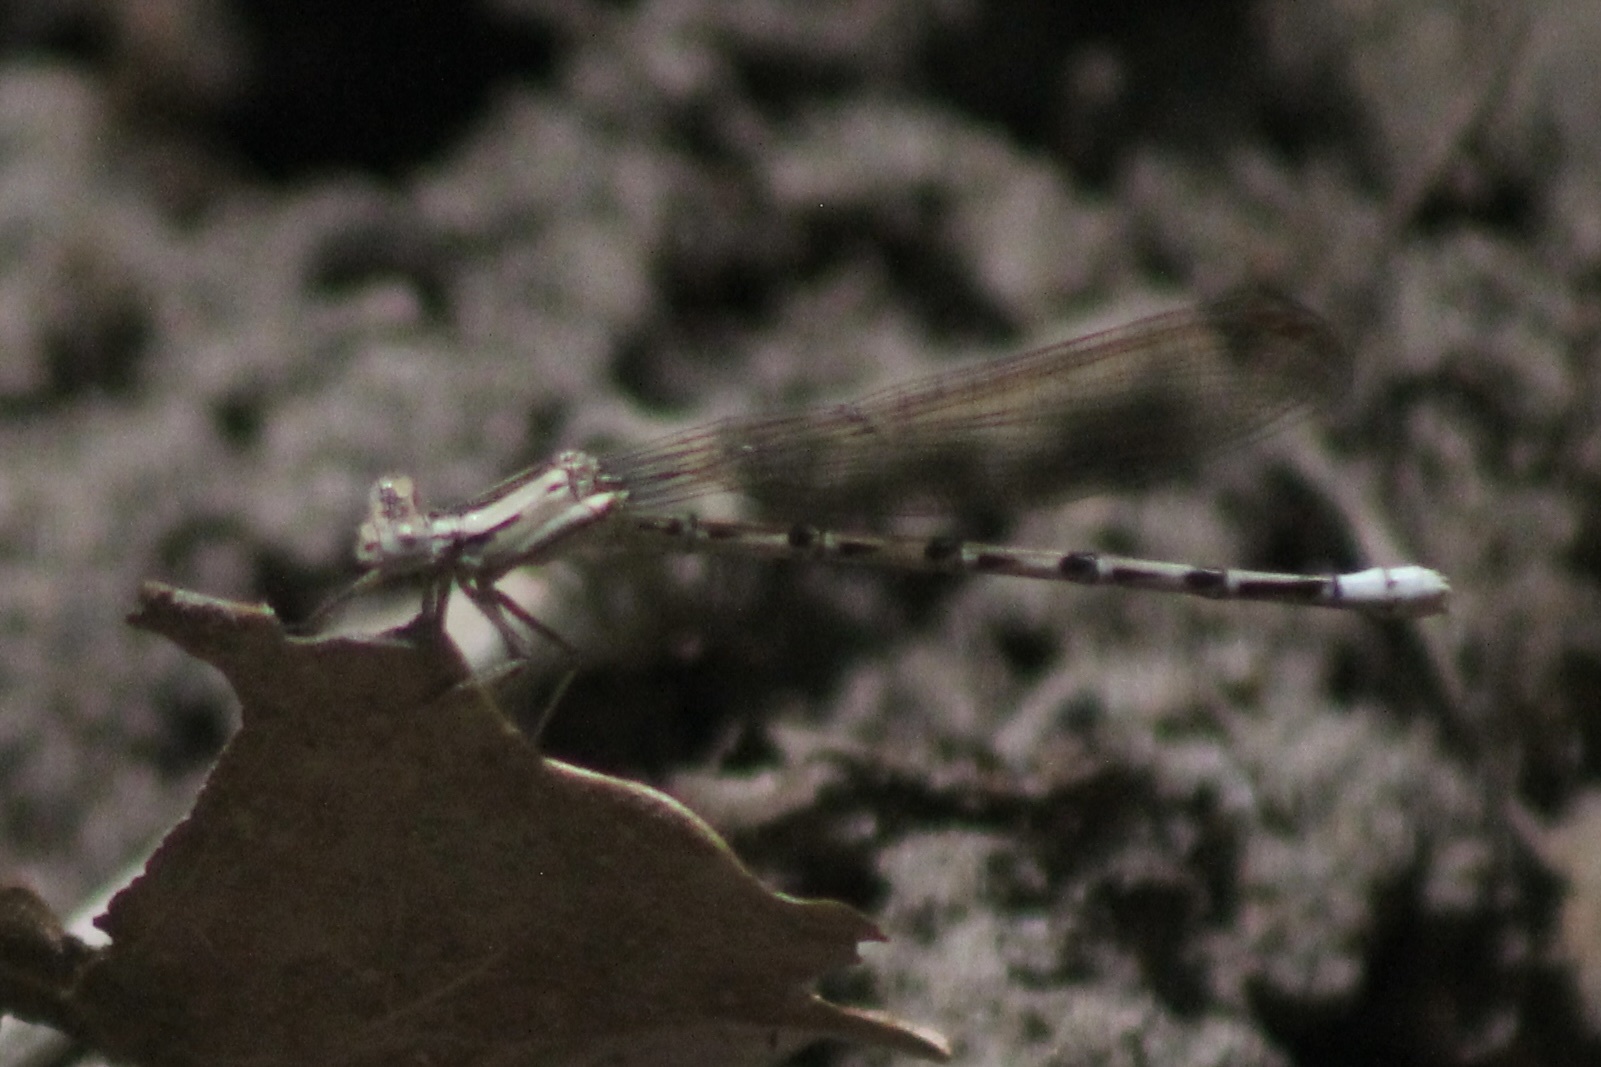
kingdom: Animalia
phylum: Arthropoda
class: Insecta
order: Odonata
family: Coenagrionidae
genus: Argia
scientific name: Argia funebris
